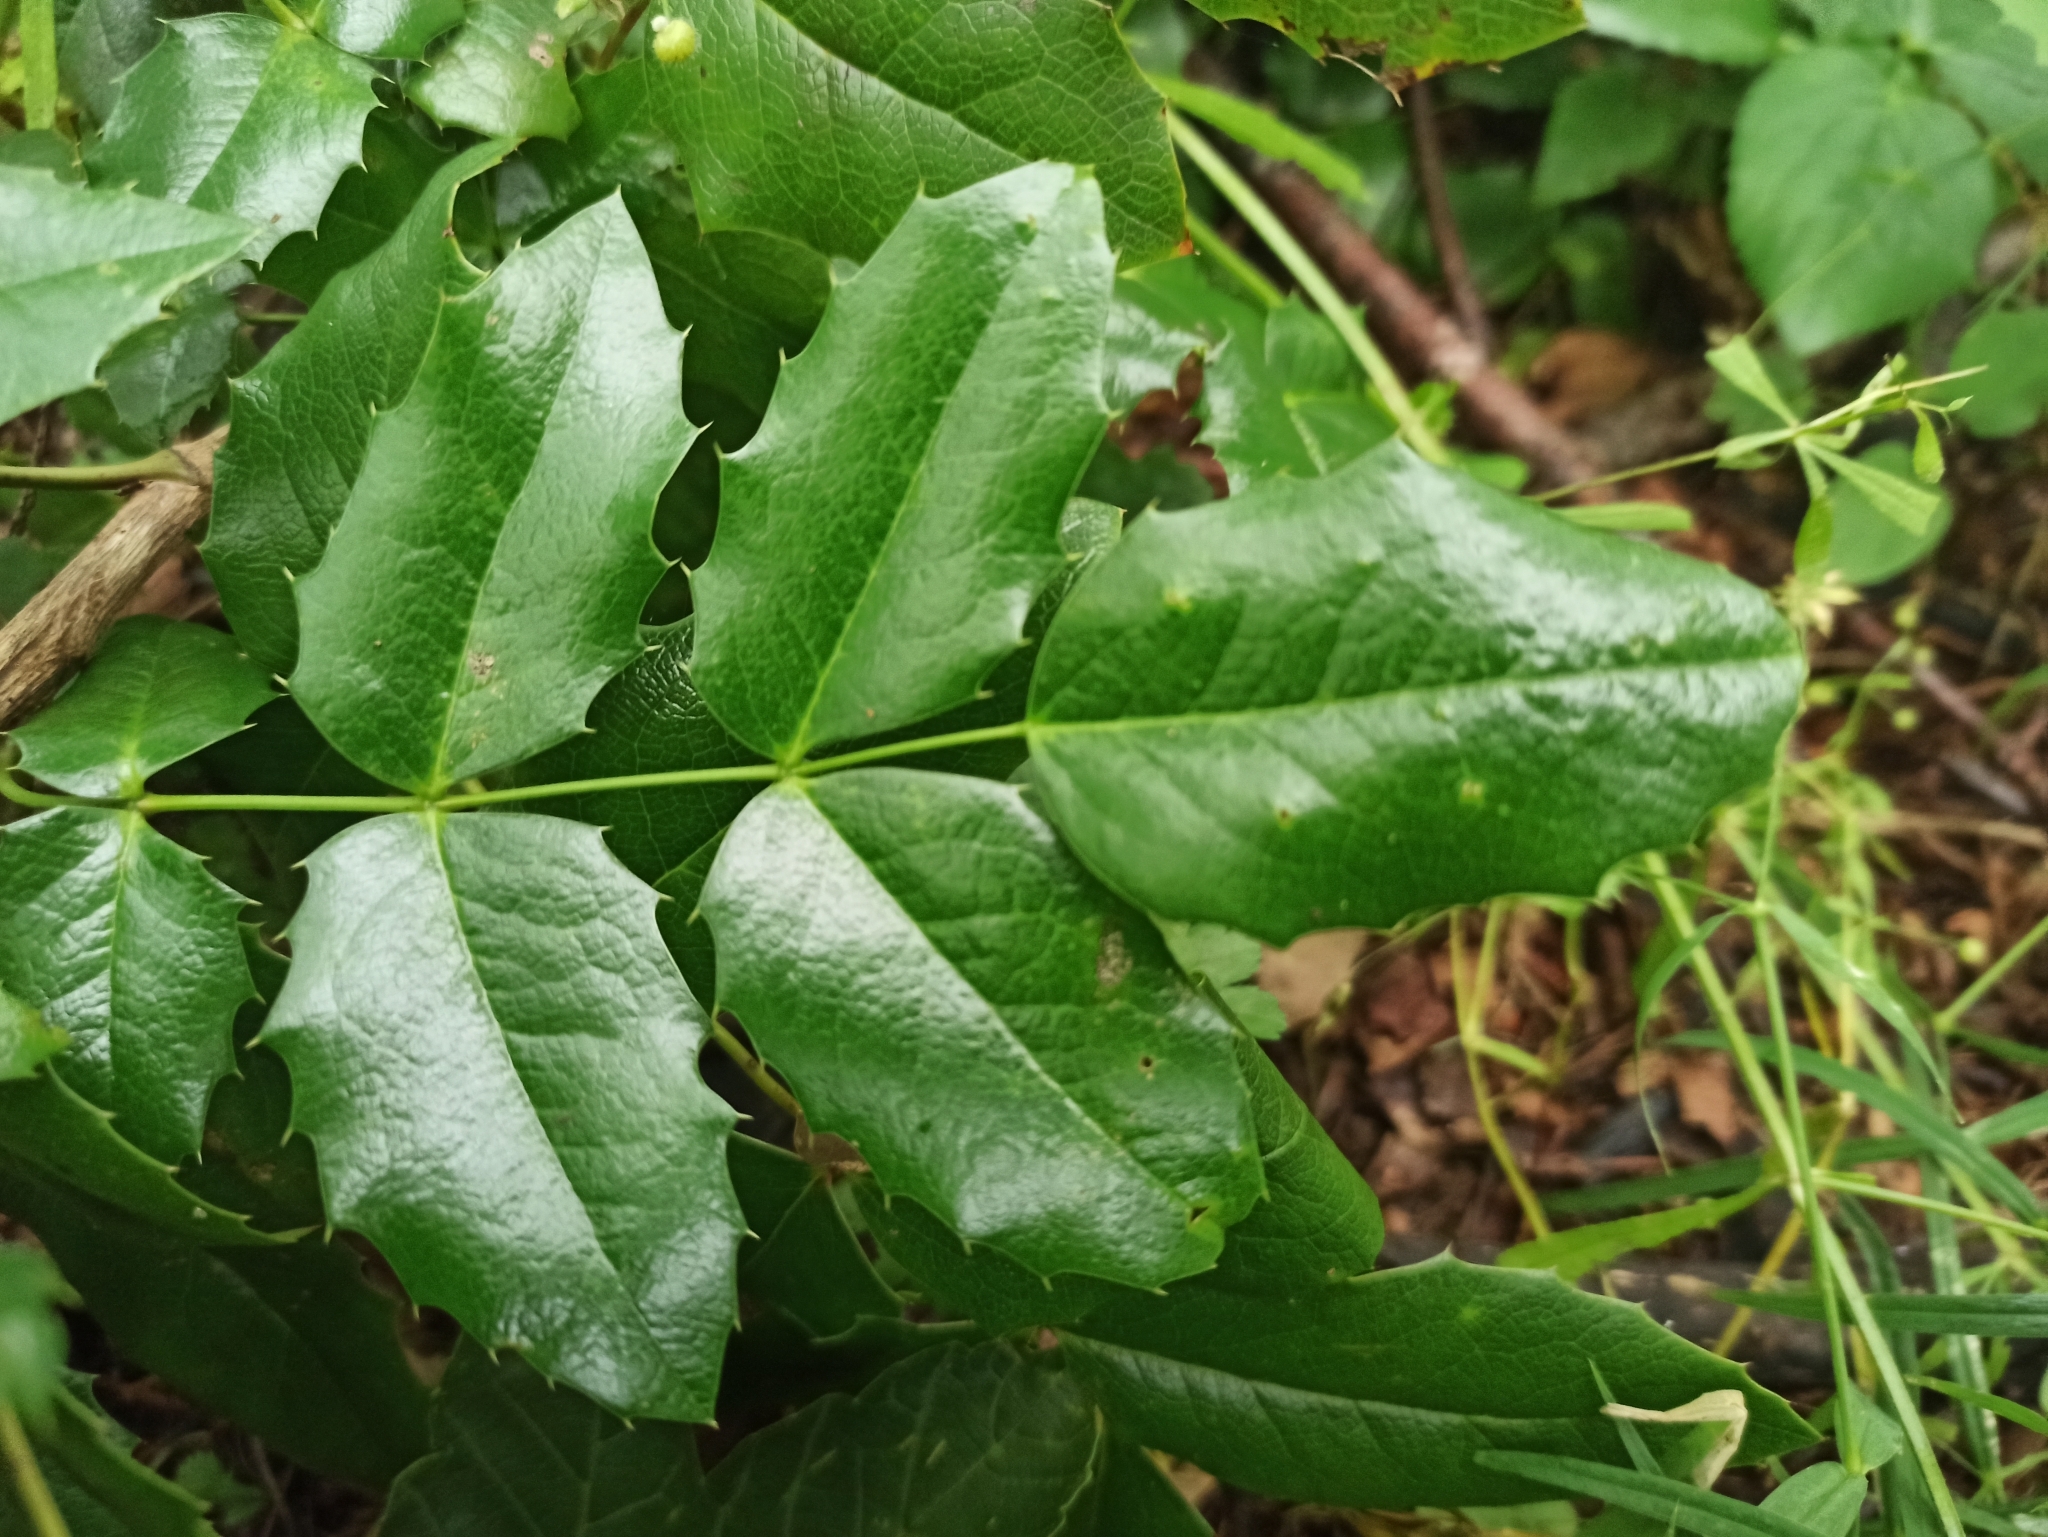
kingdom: Plantae
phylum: Tracheophyta
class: Magnoliopsida
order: Ranunculales
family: Berberidaceae
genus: Mahonia
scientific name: Mahonia aquifolium
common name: Oregon-grape
